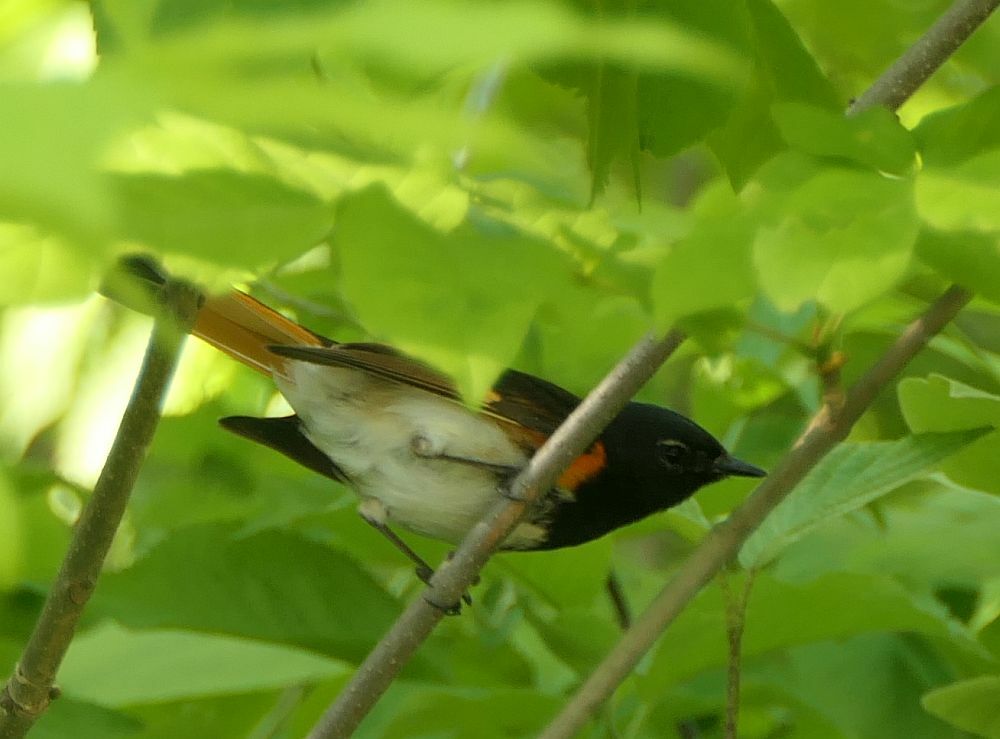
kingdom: Animalia
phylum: Chordata
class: Aves
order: Passeriformes
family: Parulidae
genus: Setophaga
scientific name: Setophaga ruticilla
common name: American redstart
